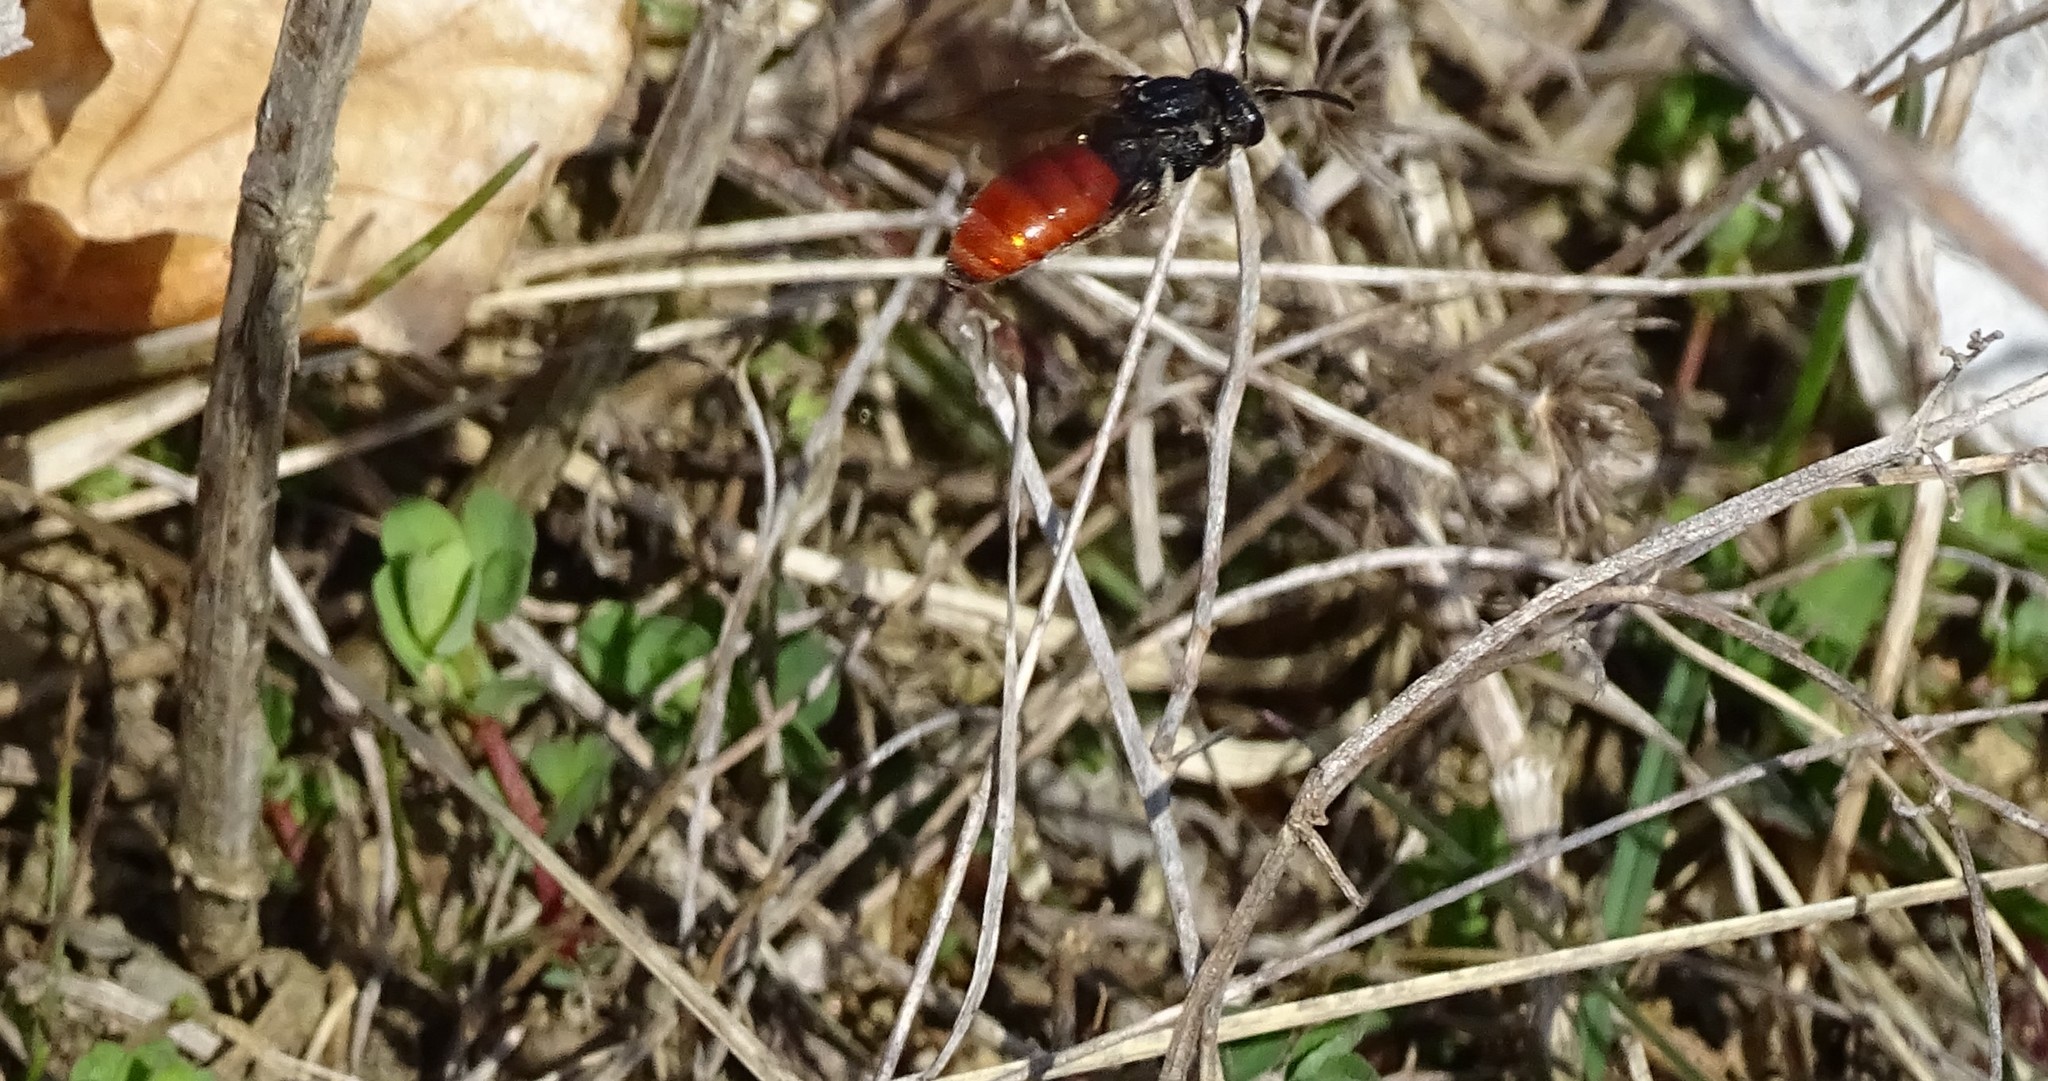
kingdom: Animalia
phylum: Arthropoda
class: Insecta
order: Hymenoptera
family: Halictidae
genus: Sphecodes
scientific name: Sphecodes albilabris
